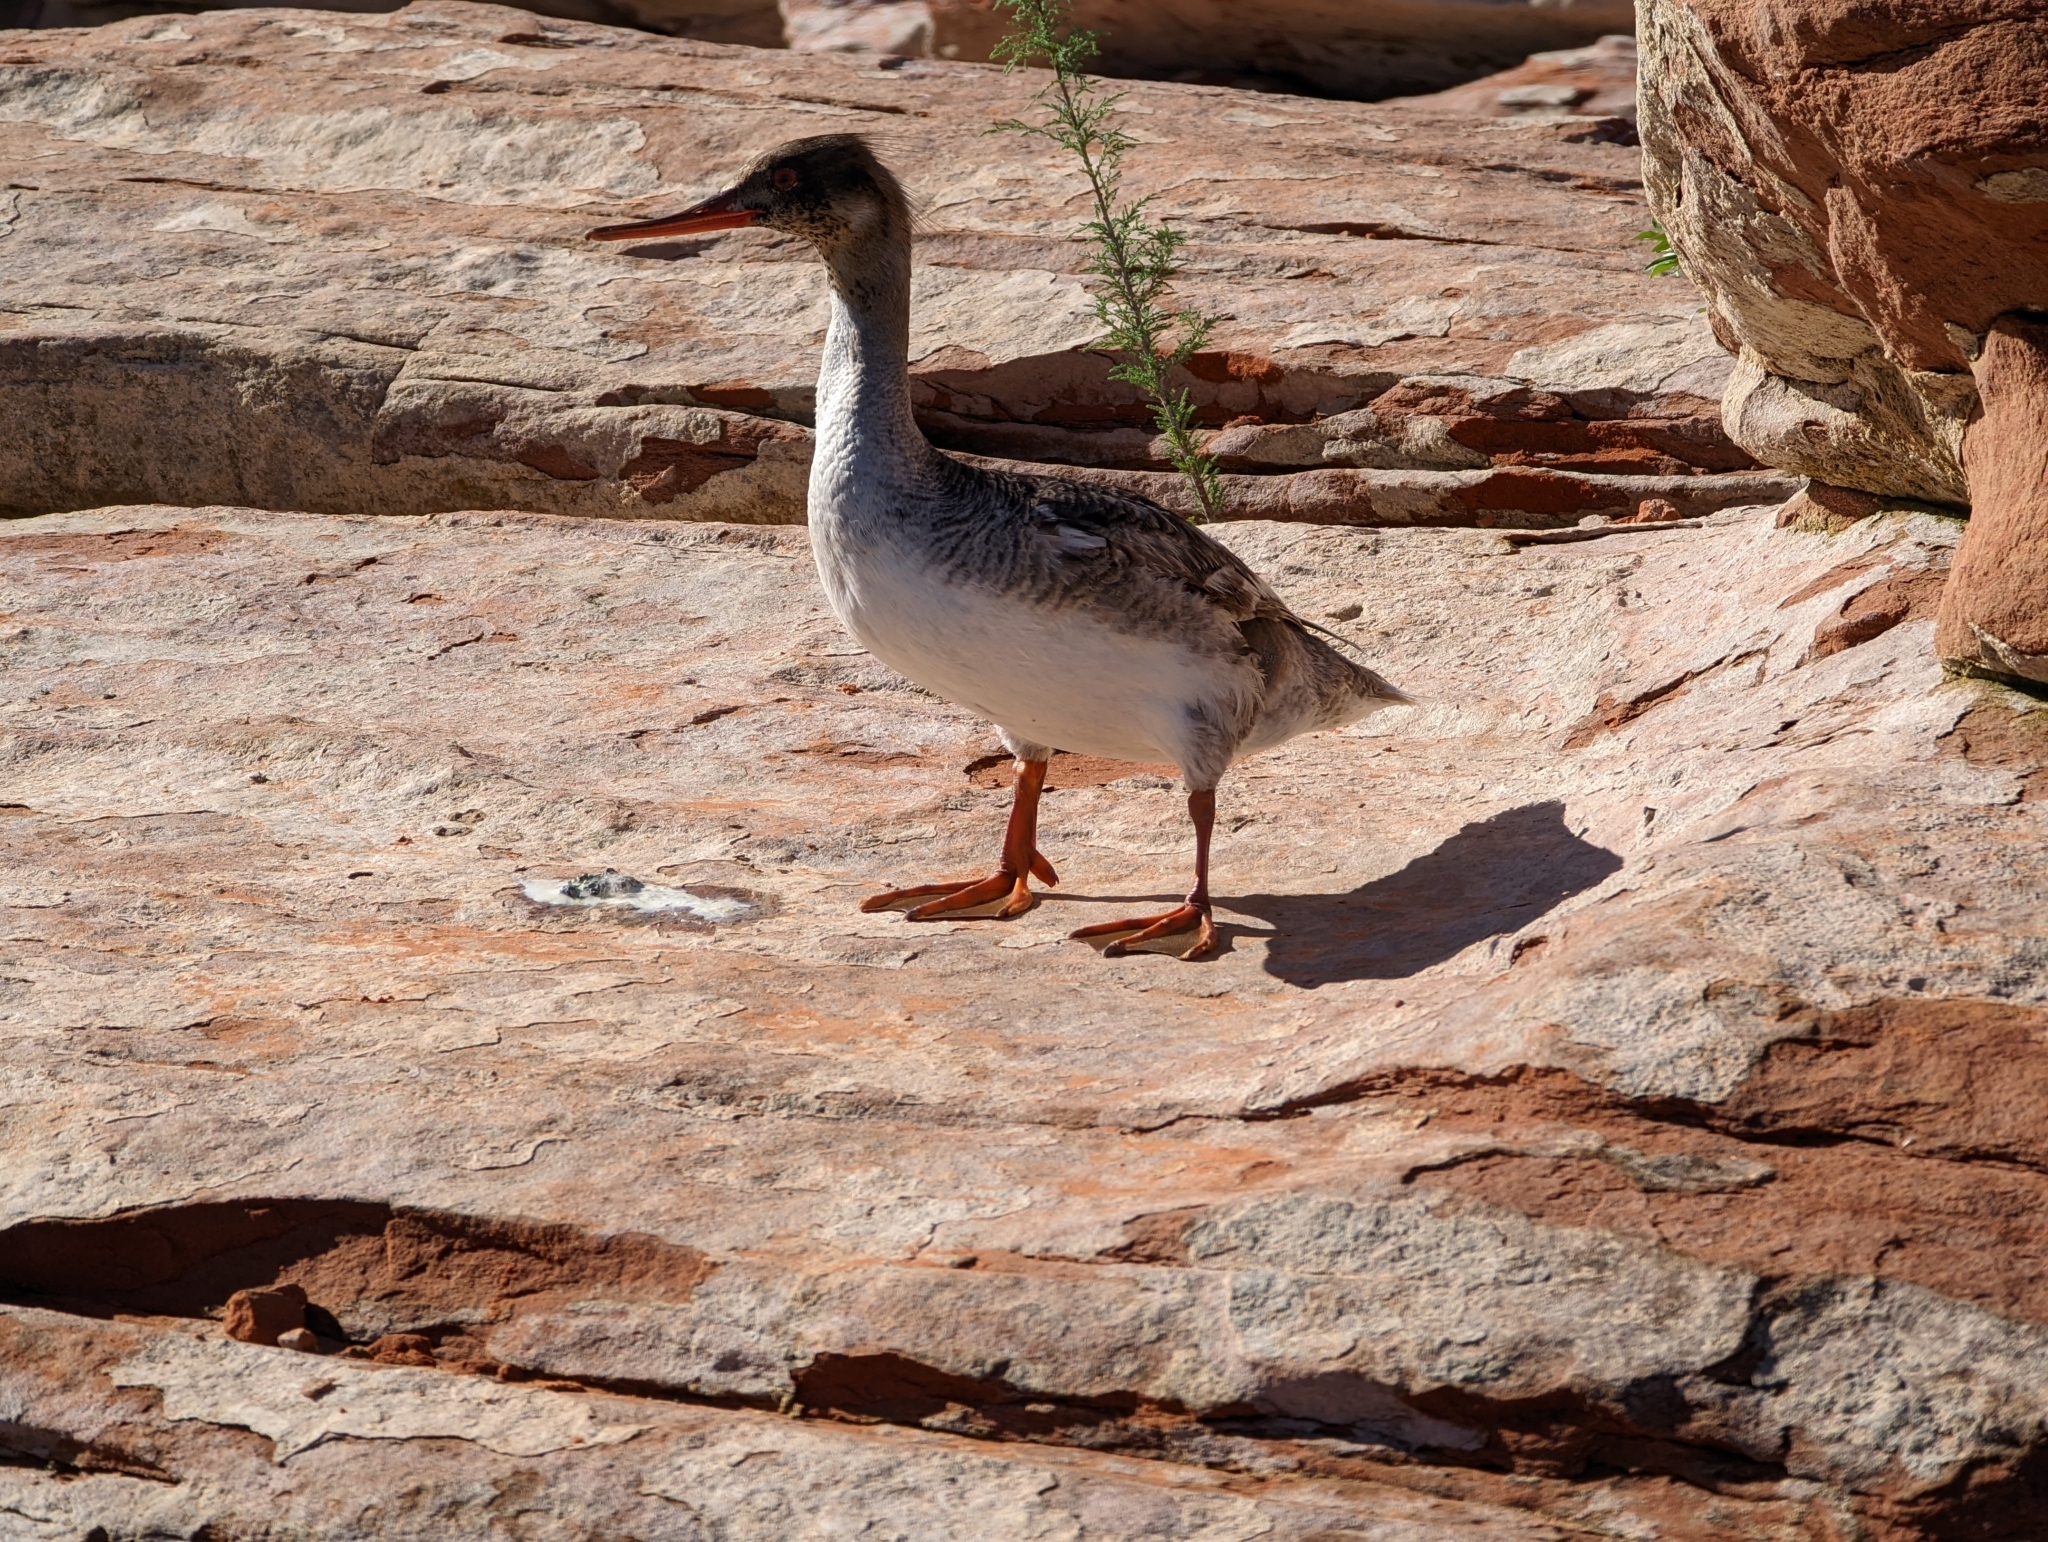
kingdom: Animalia
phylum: Chordata
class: Aves
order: Anseriformes
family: Anatidae
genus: Mergus
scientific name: Mergus serrator
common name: Red-breasted merganser
